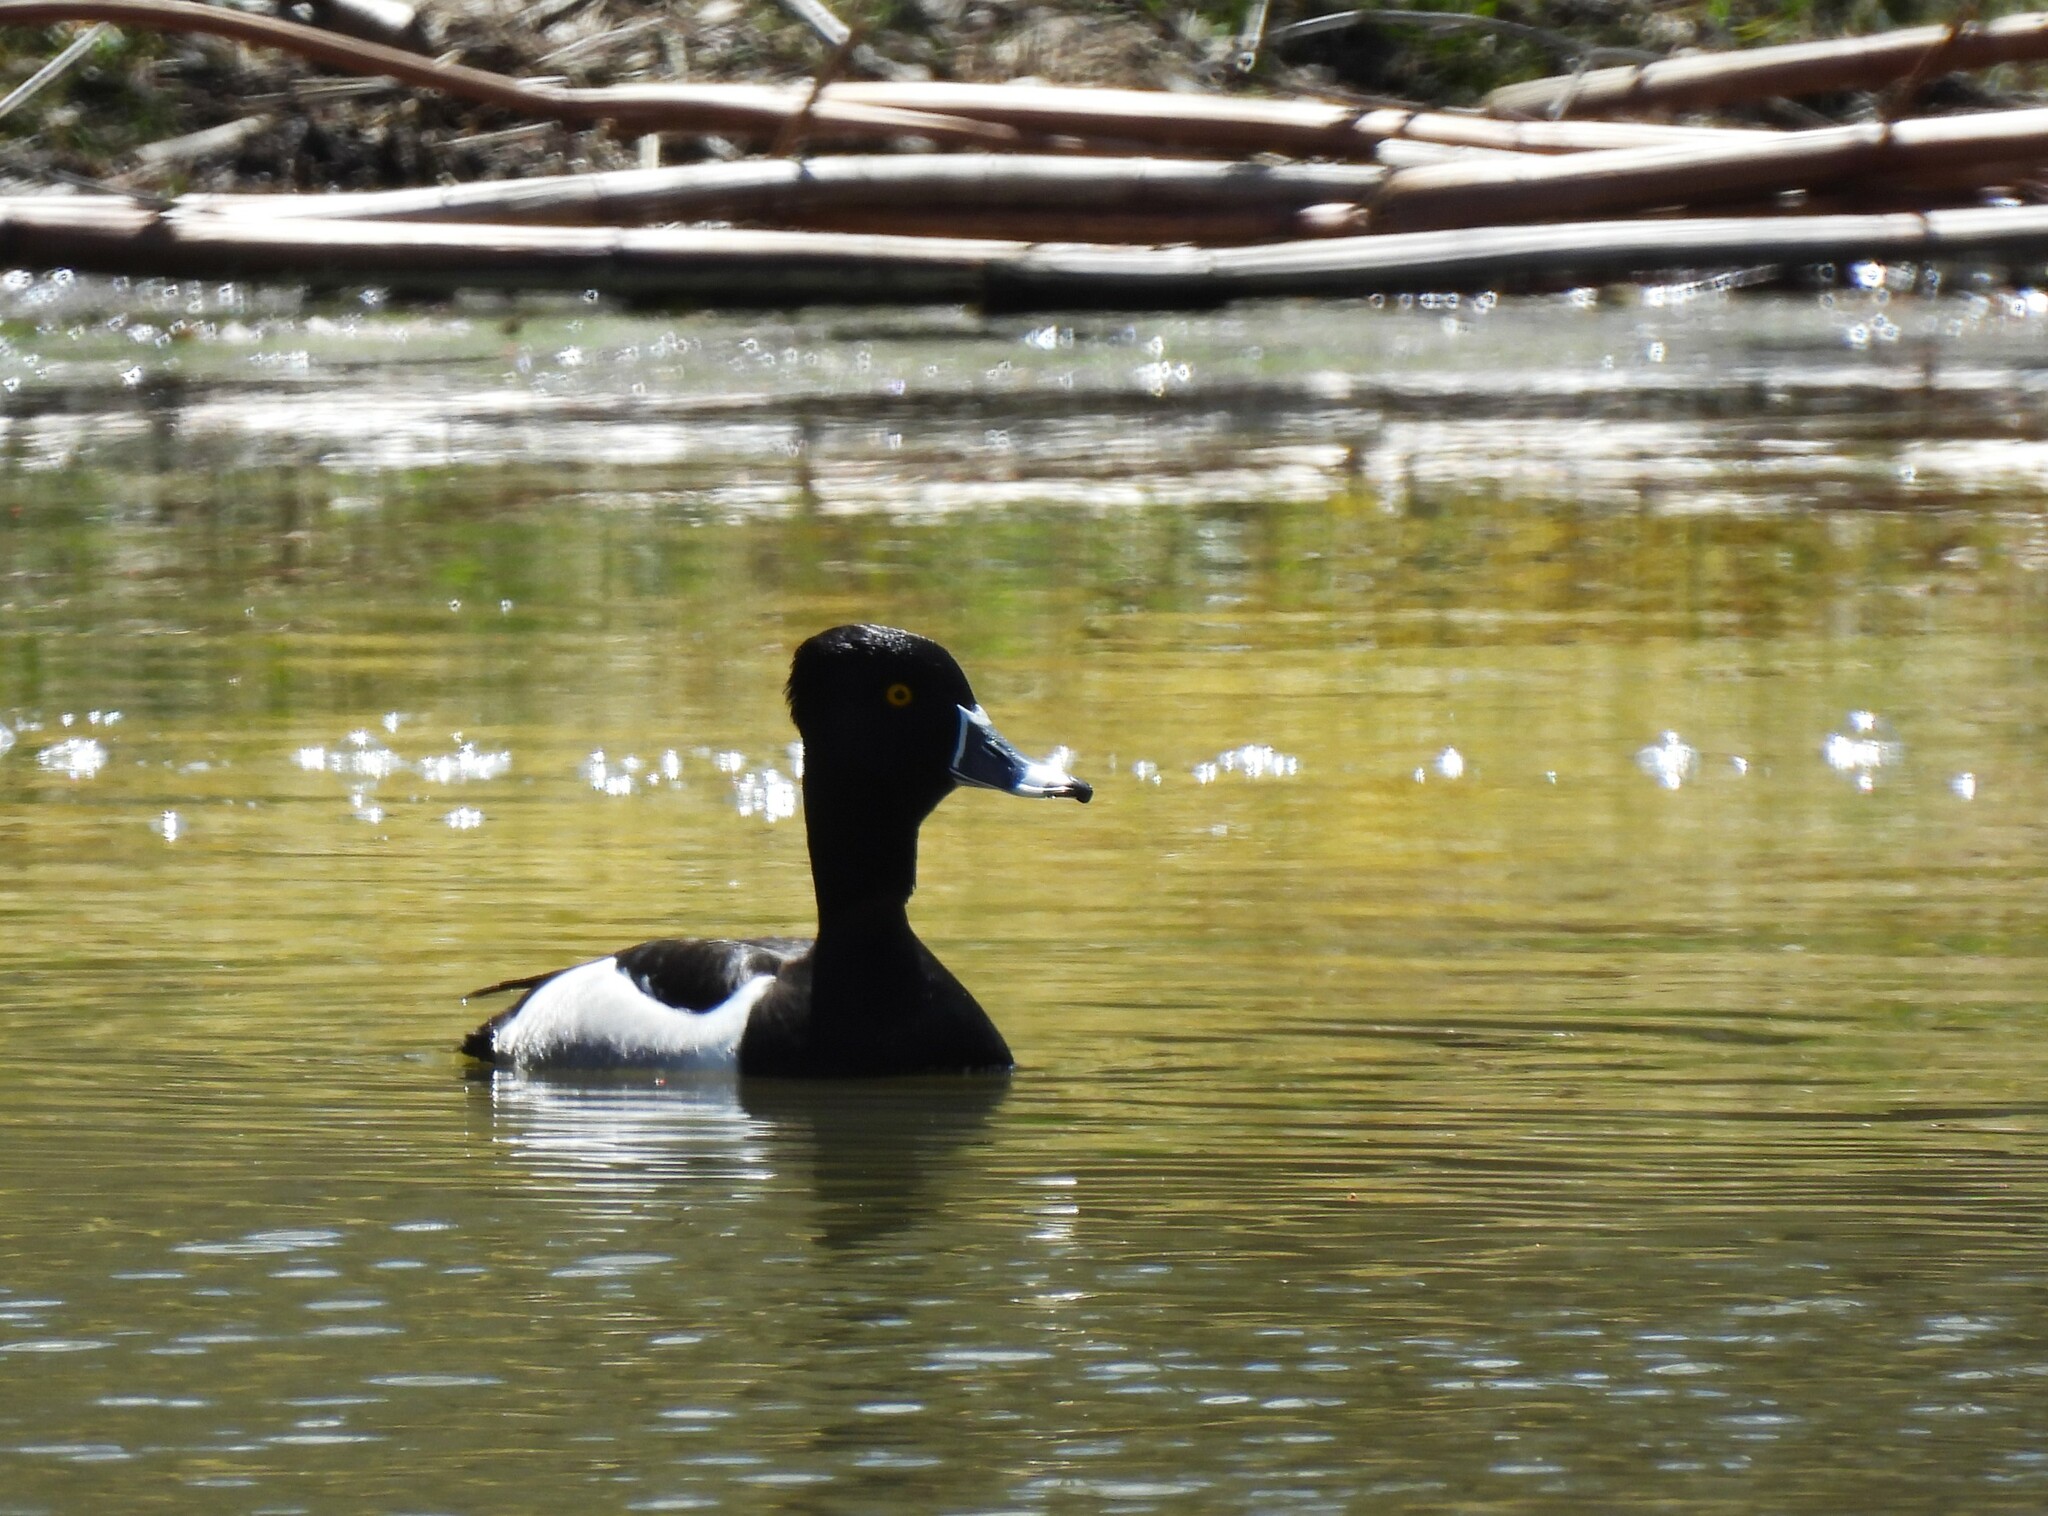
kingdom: Animalia
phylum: Chordata
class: Aves
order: Anseriformes
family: Anatidae
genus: Aythya
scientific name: Aythya collaris
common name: Ring-necked duck
